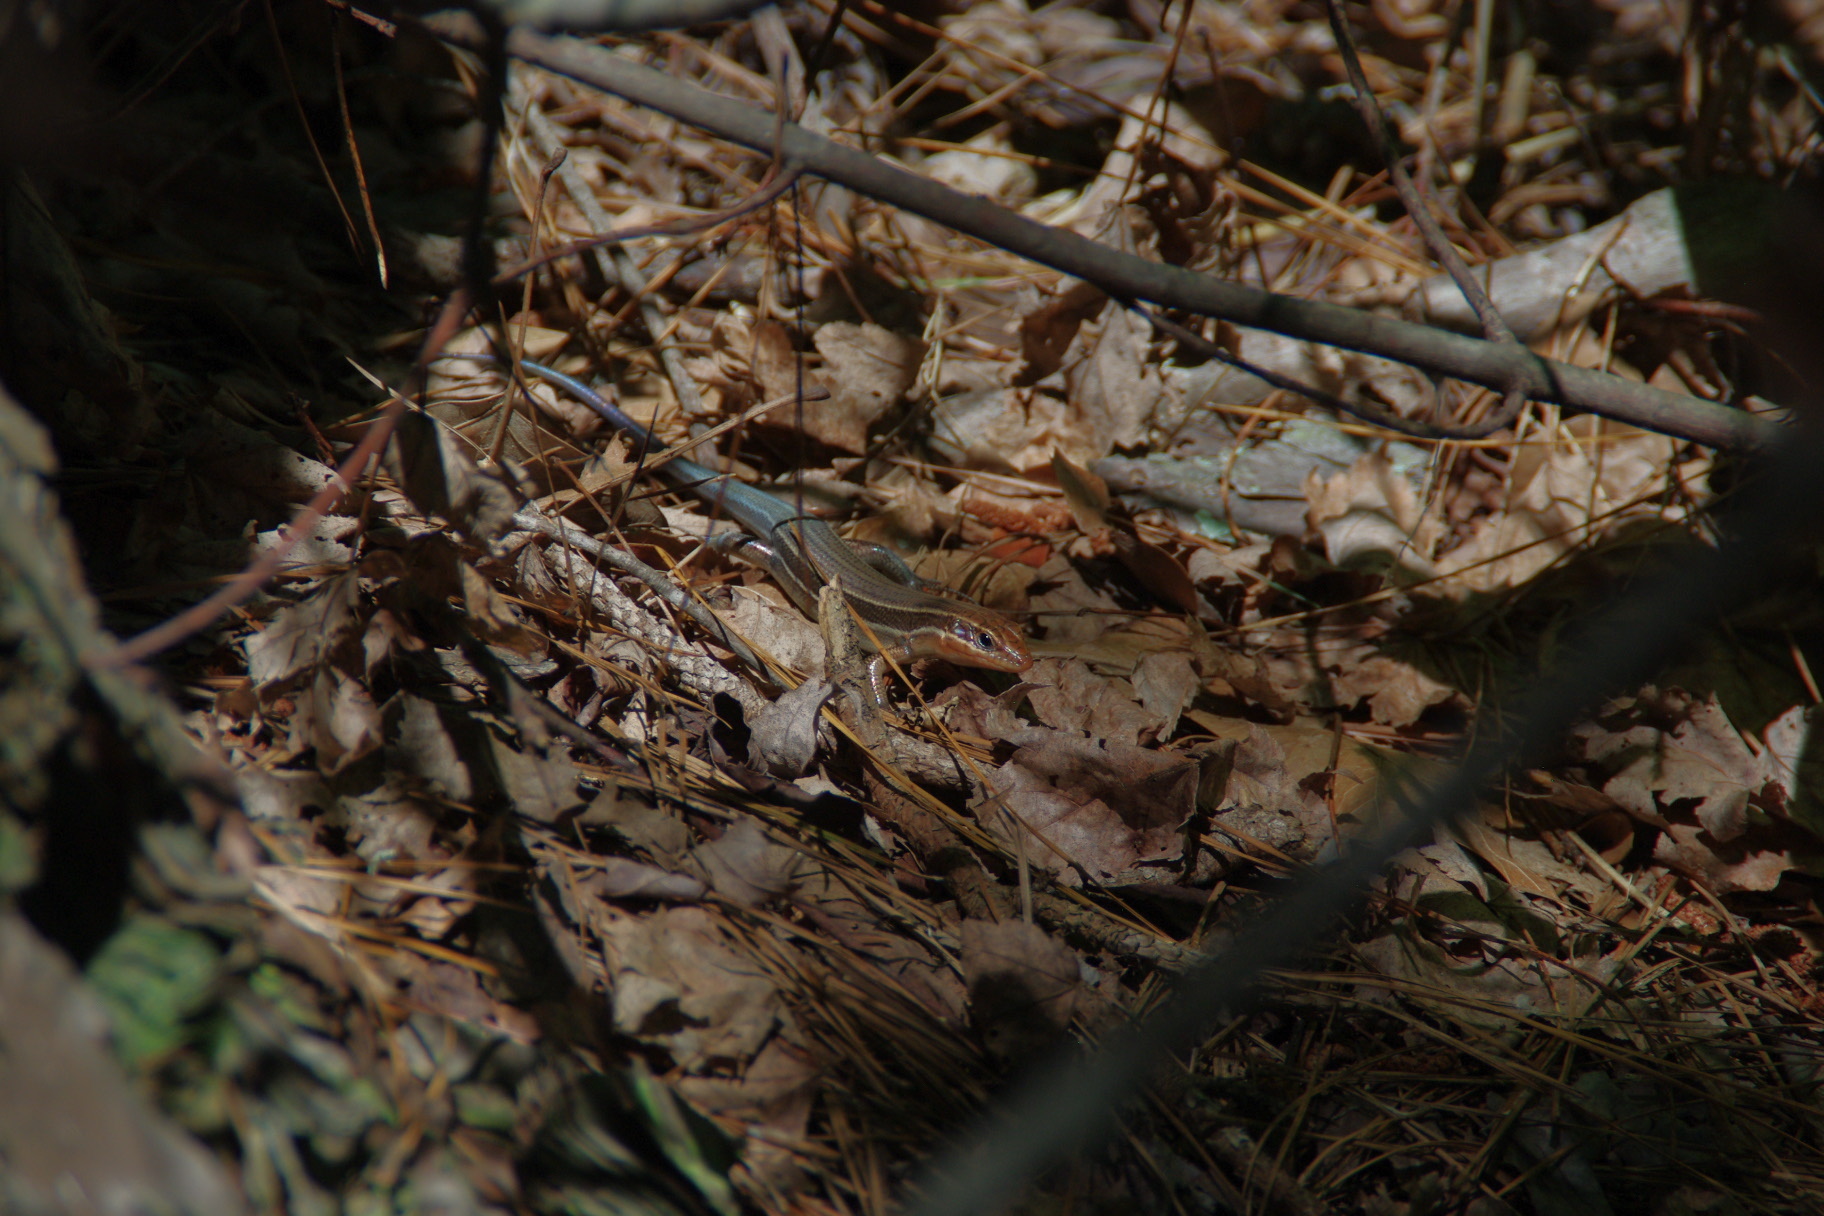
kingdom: Animalia
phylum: Chordata
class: Squamata
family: Scincidae
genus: Plestiodon
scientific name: Plestiodon laticeps
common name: Broadhead skink
